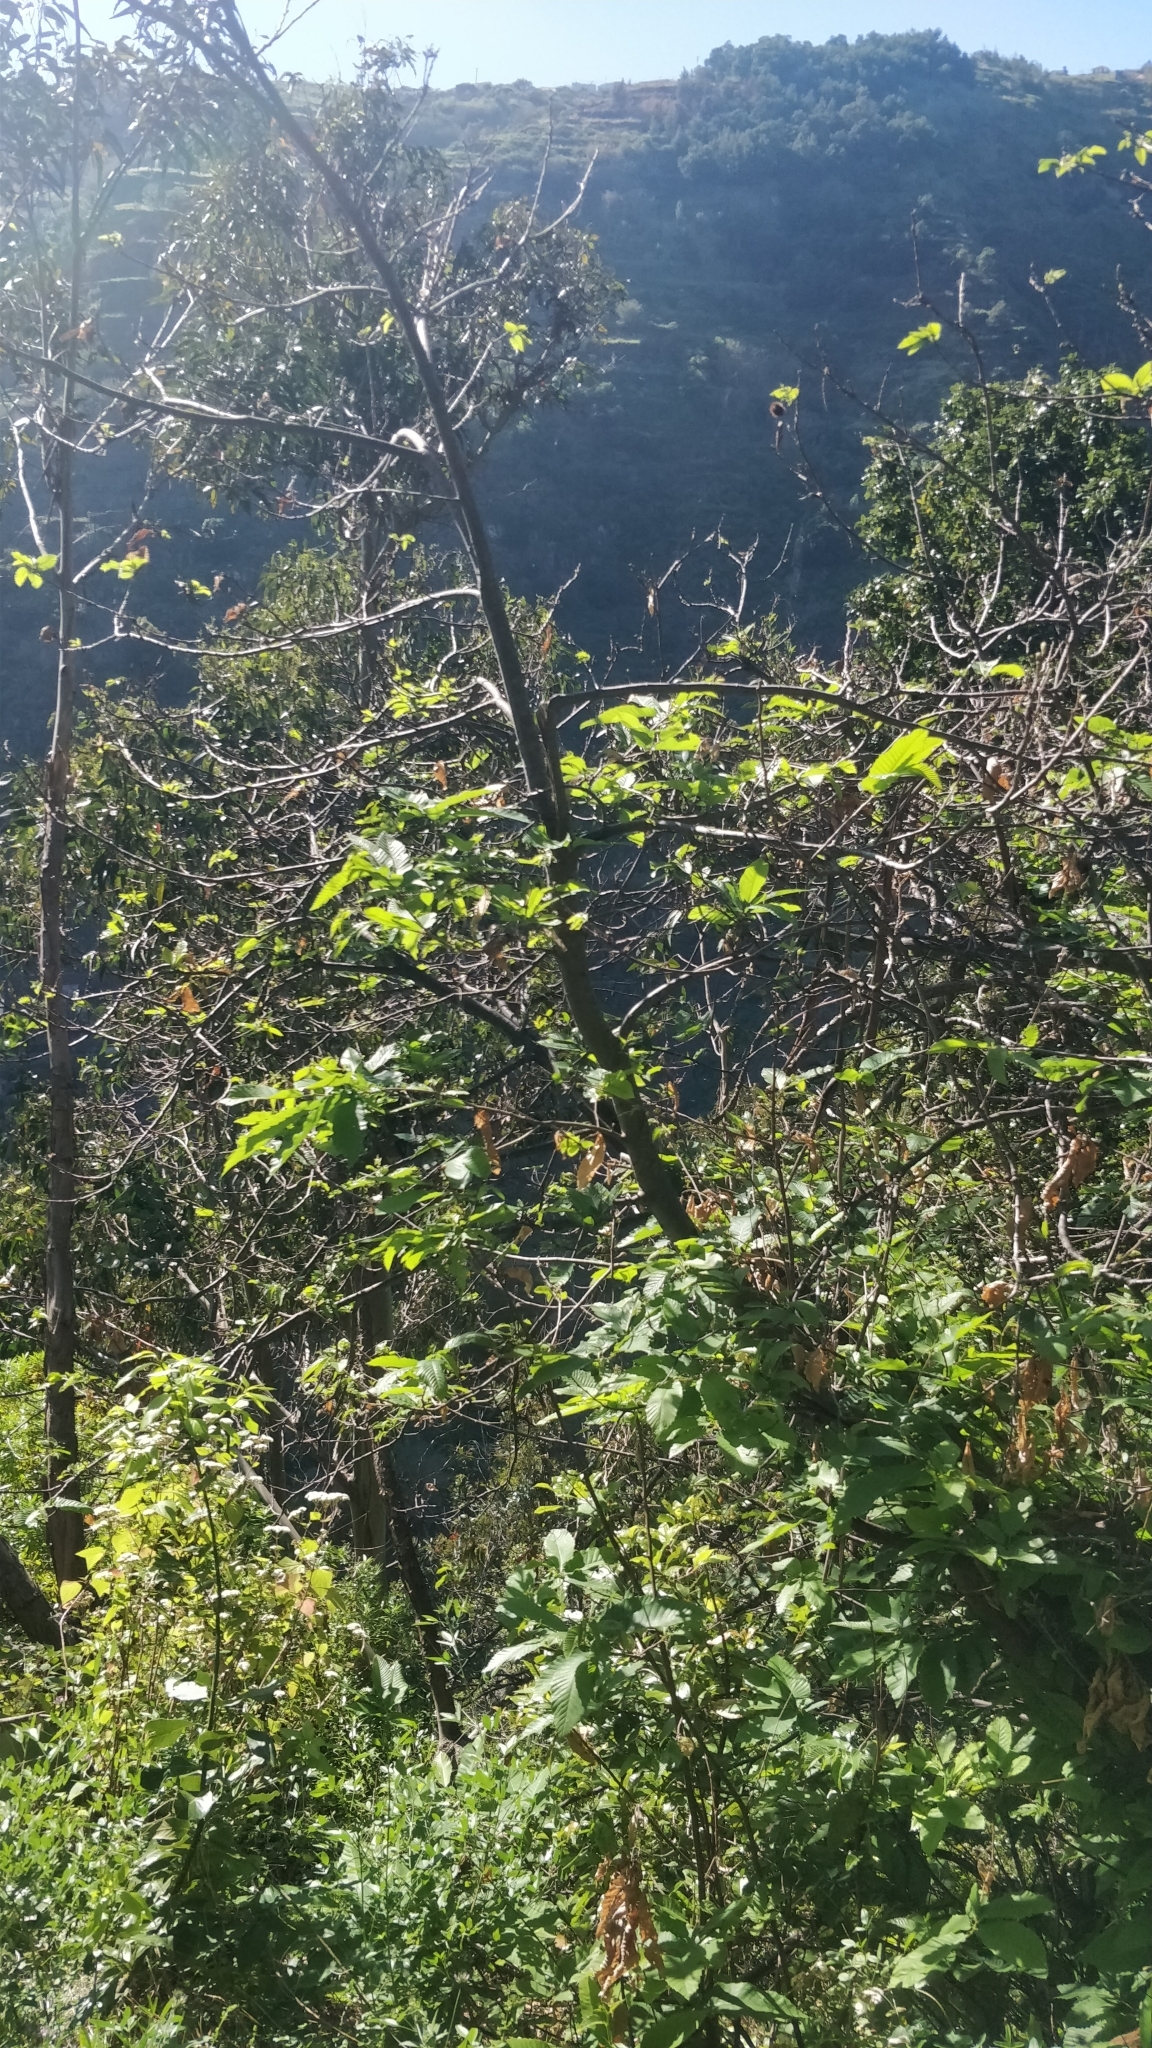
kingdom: Plantae
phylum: Tracheophyta
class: Magnoliopsida
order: Fagales
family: Fagaceae
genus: Castanea
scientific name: Castanea sativa
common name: Sweet chestnut
